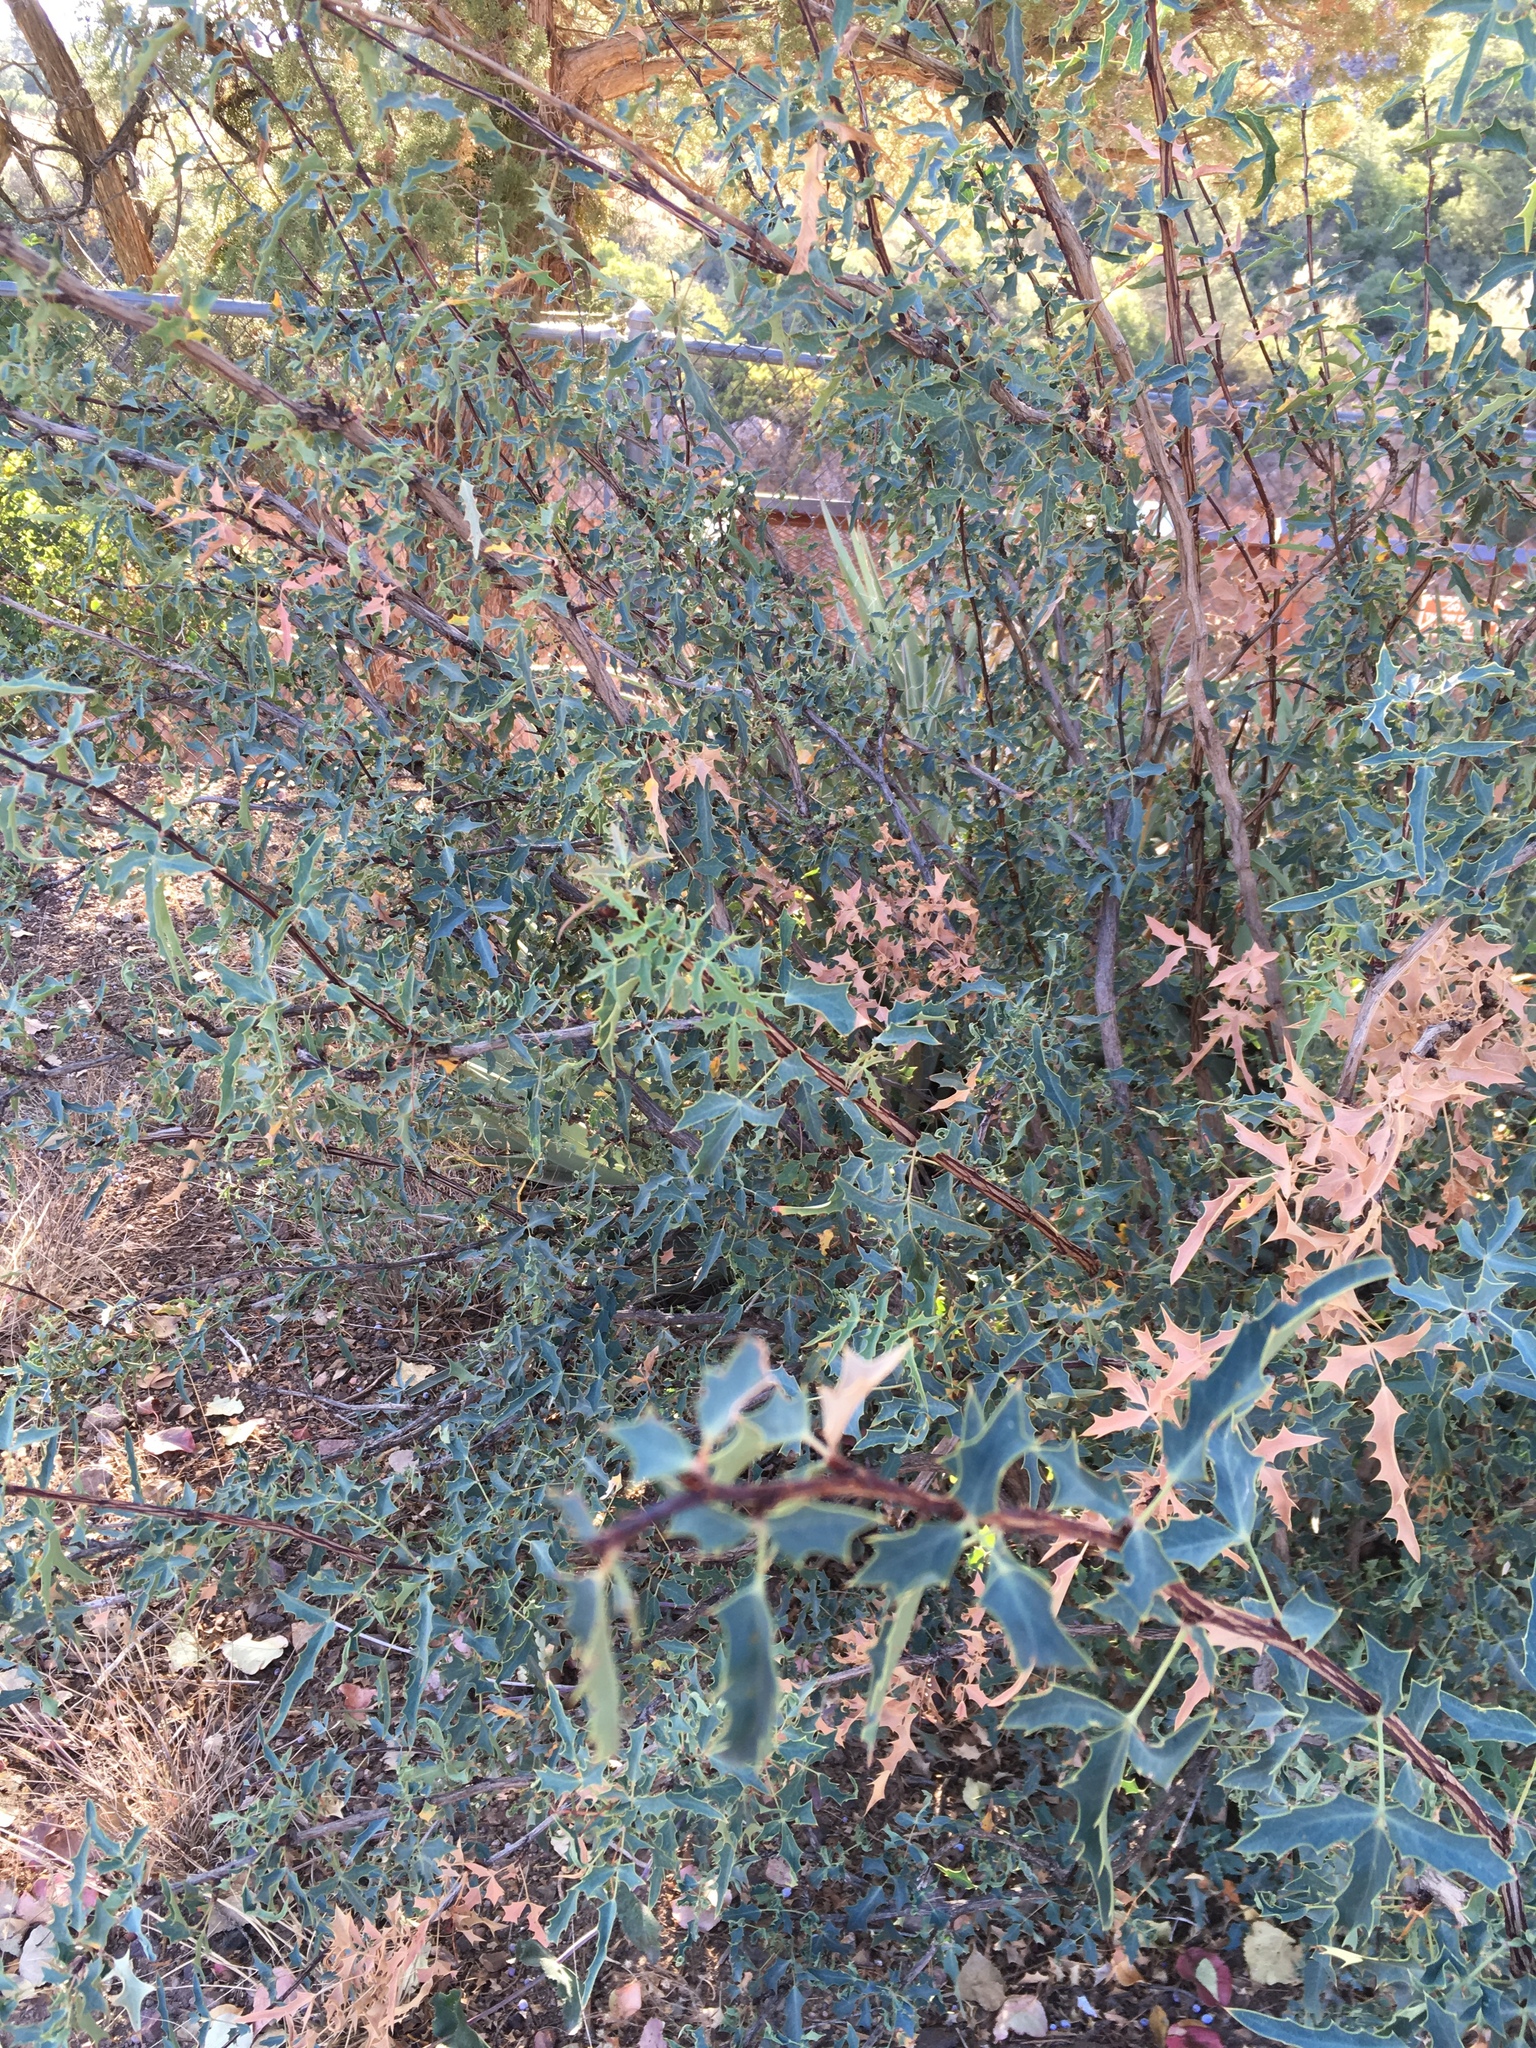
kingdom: Plantae
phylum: Tracheophyta
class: Magnoliopsida
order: Ranunculales
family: Berberidaceae
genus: Alloberberis
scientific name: Alloberberis haematocarpa
